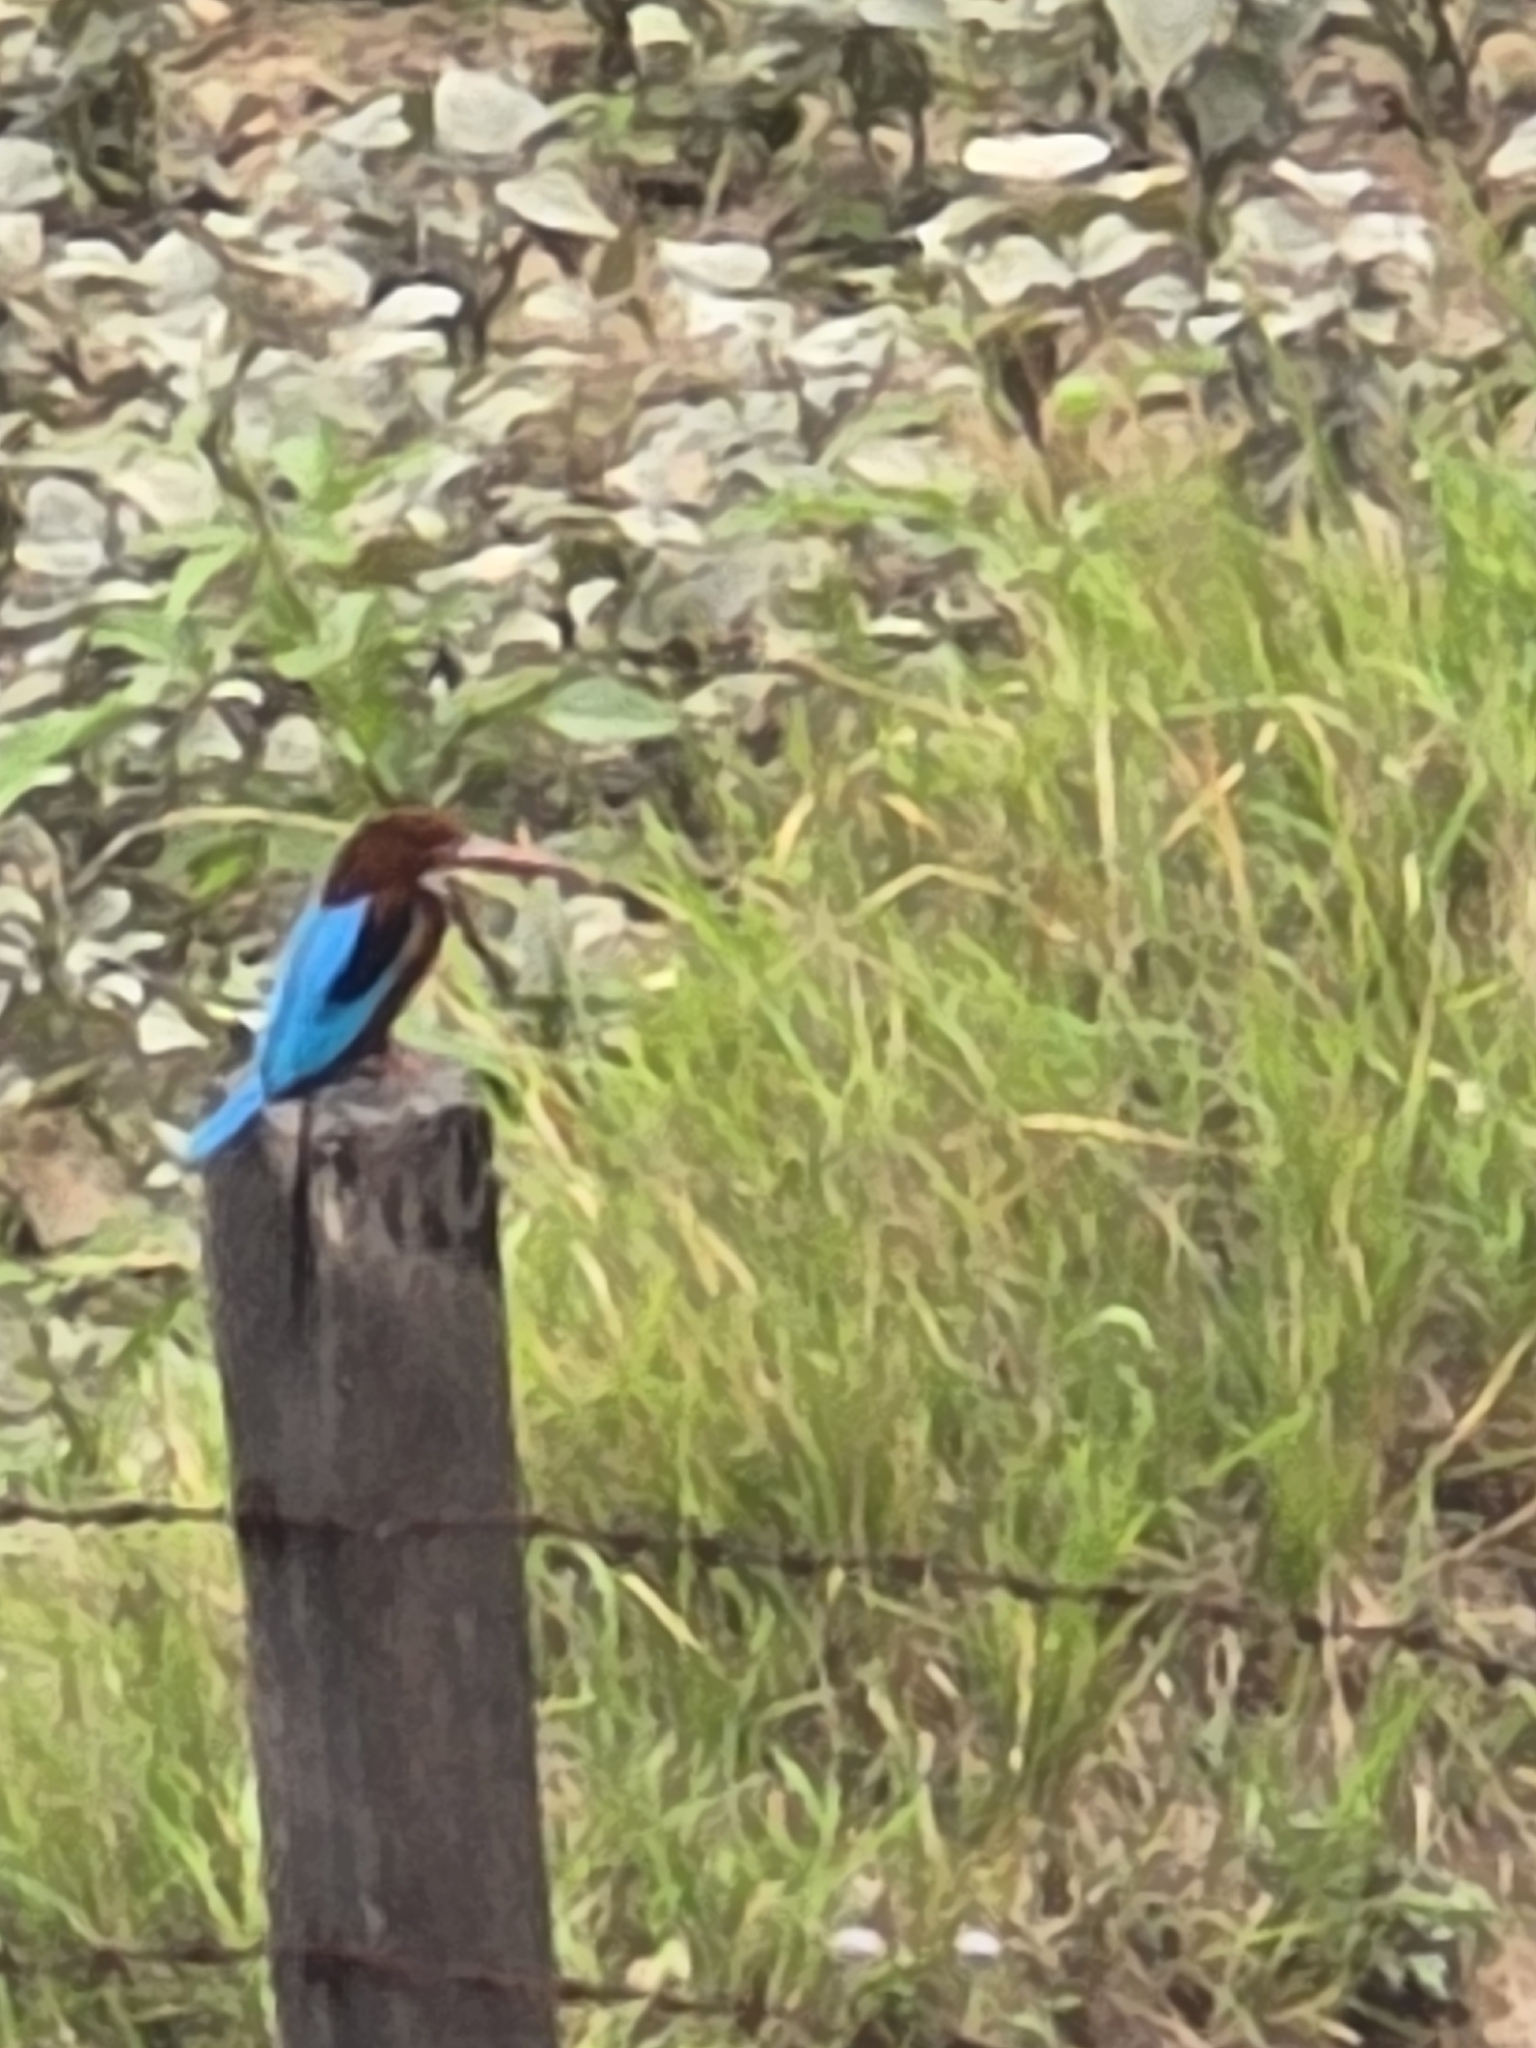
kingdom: Animalia
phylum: Chordata
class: Aves
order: Coraciiformes
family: Alcedinidae
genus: Halcyon
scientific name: Halcyon smyrnensis
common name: White-throated kingfisher
